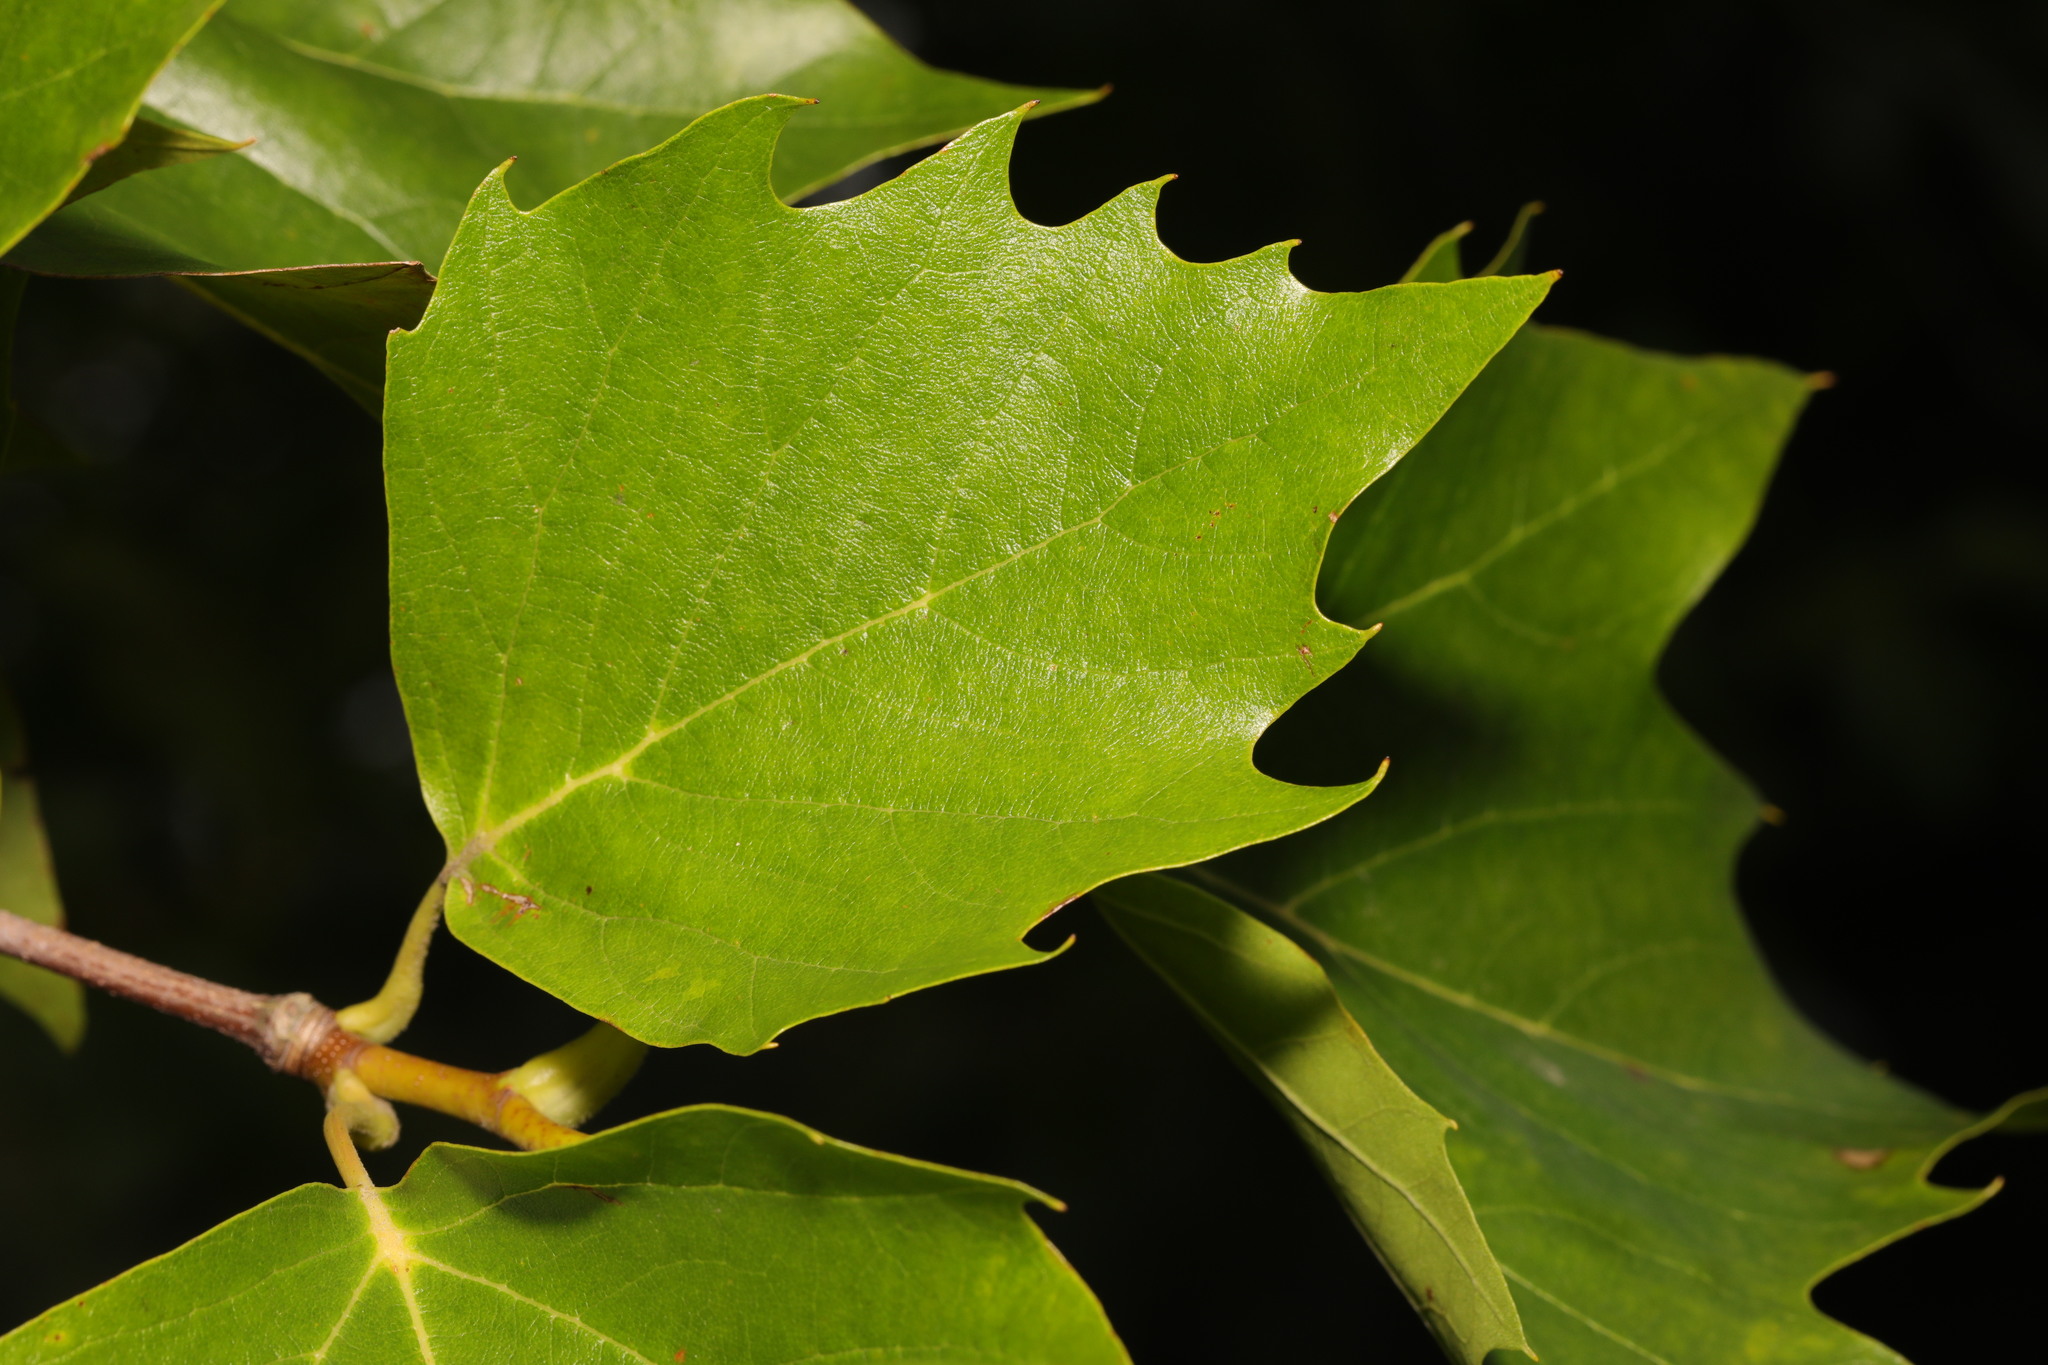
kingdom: Plantae
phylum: Tracheophyta
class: Magnoliopsida
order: Proteales
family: Platanaceae
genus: Platanus
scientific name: Platanus hispanica
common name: London plane
